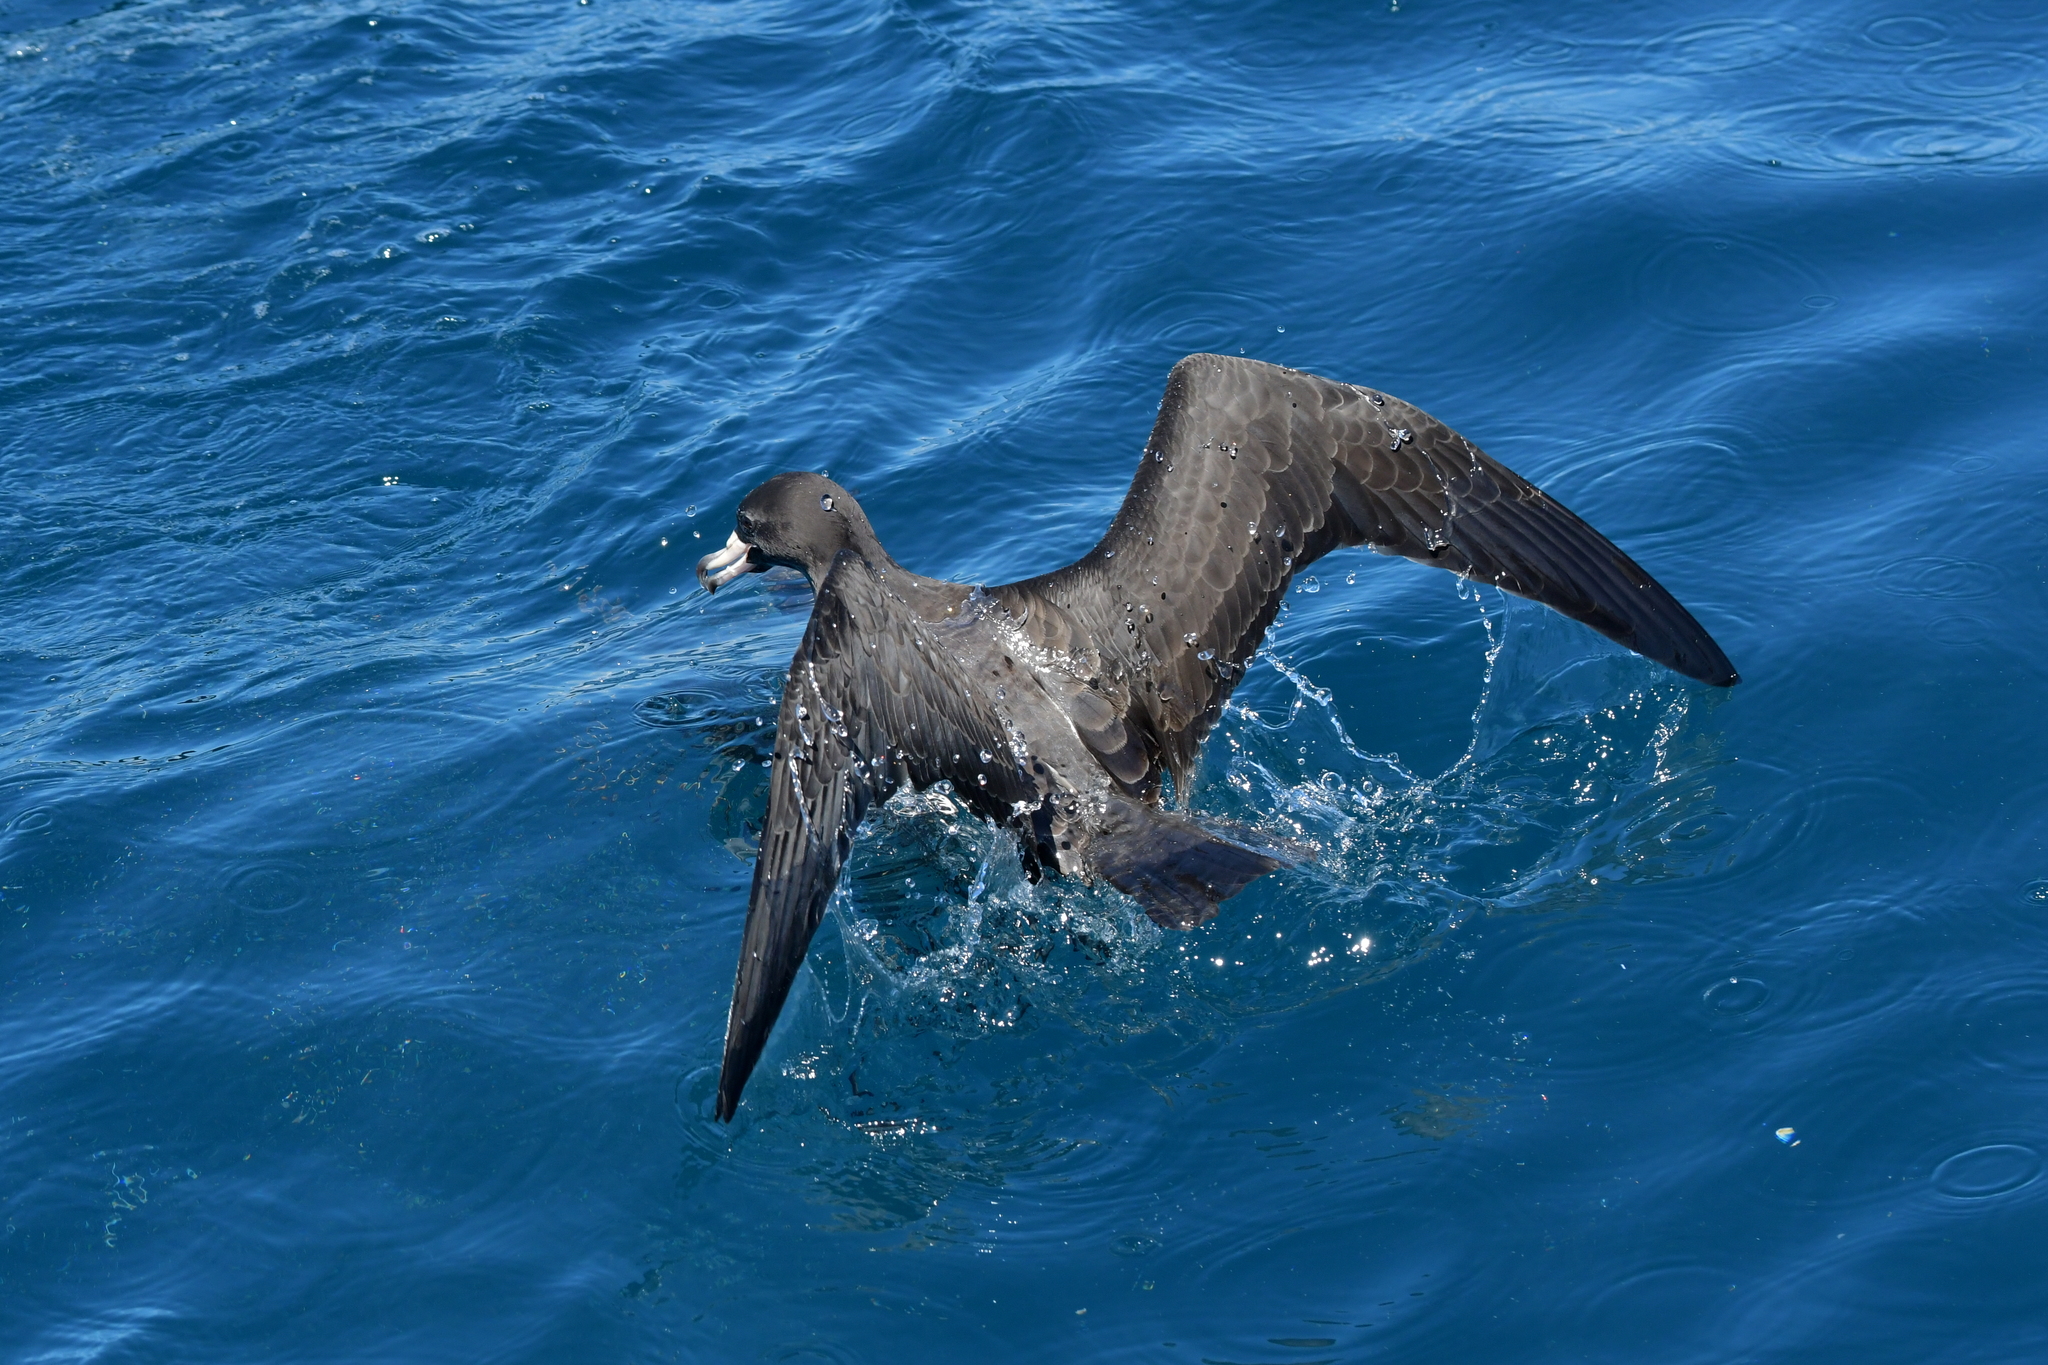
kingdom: Animalia
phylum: Chordata
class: Aves
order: Procellariiformes
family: Procellariidae
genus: Puffinus
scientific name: Puffinus carneipes
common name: Flesh-footed shearwater
